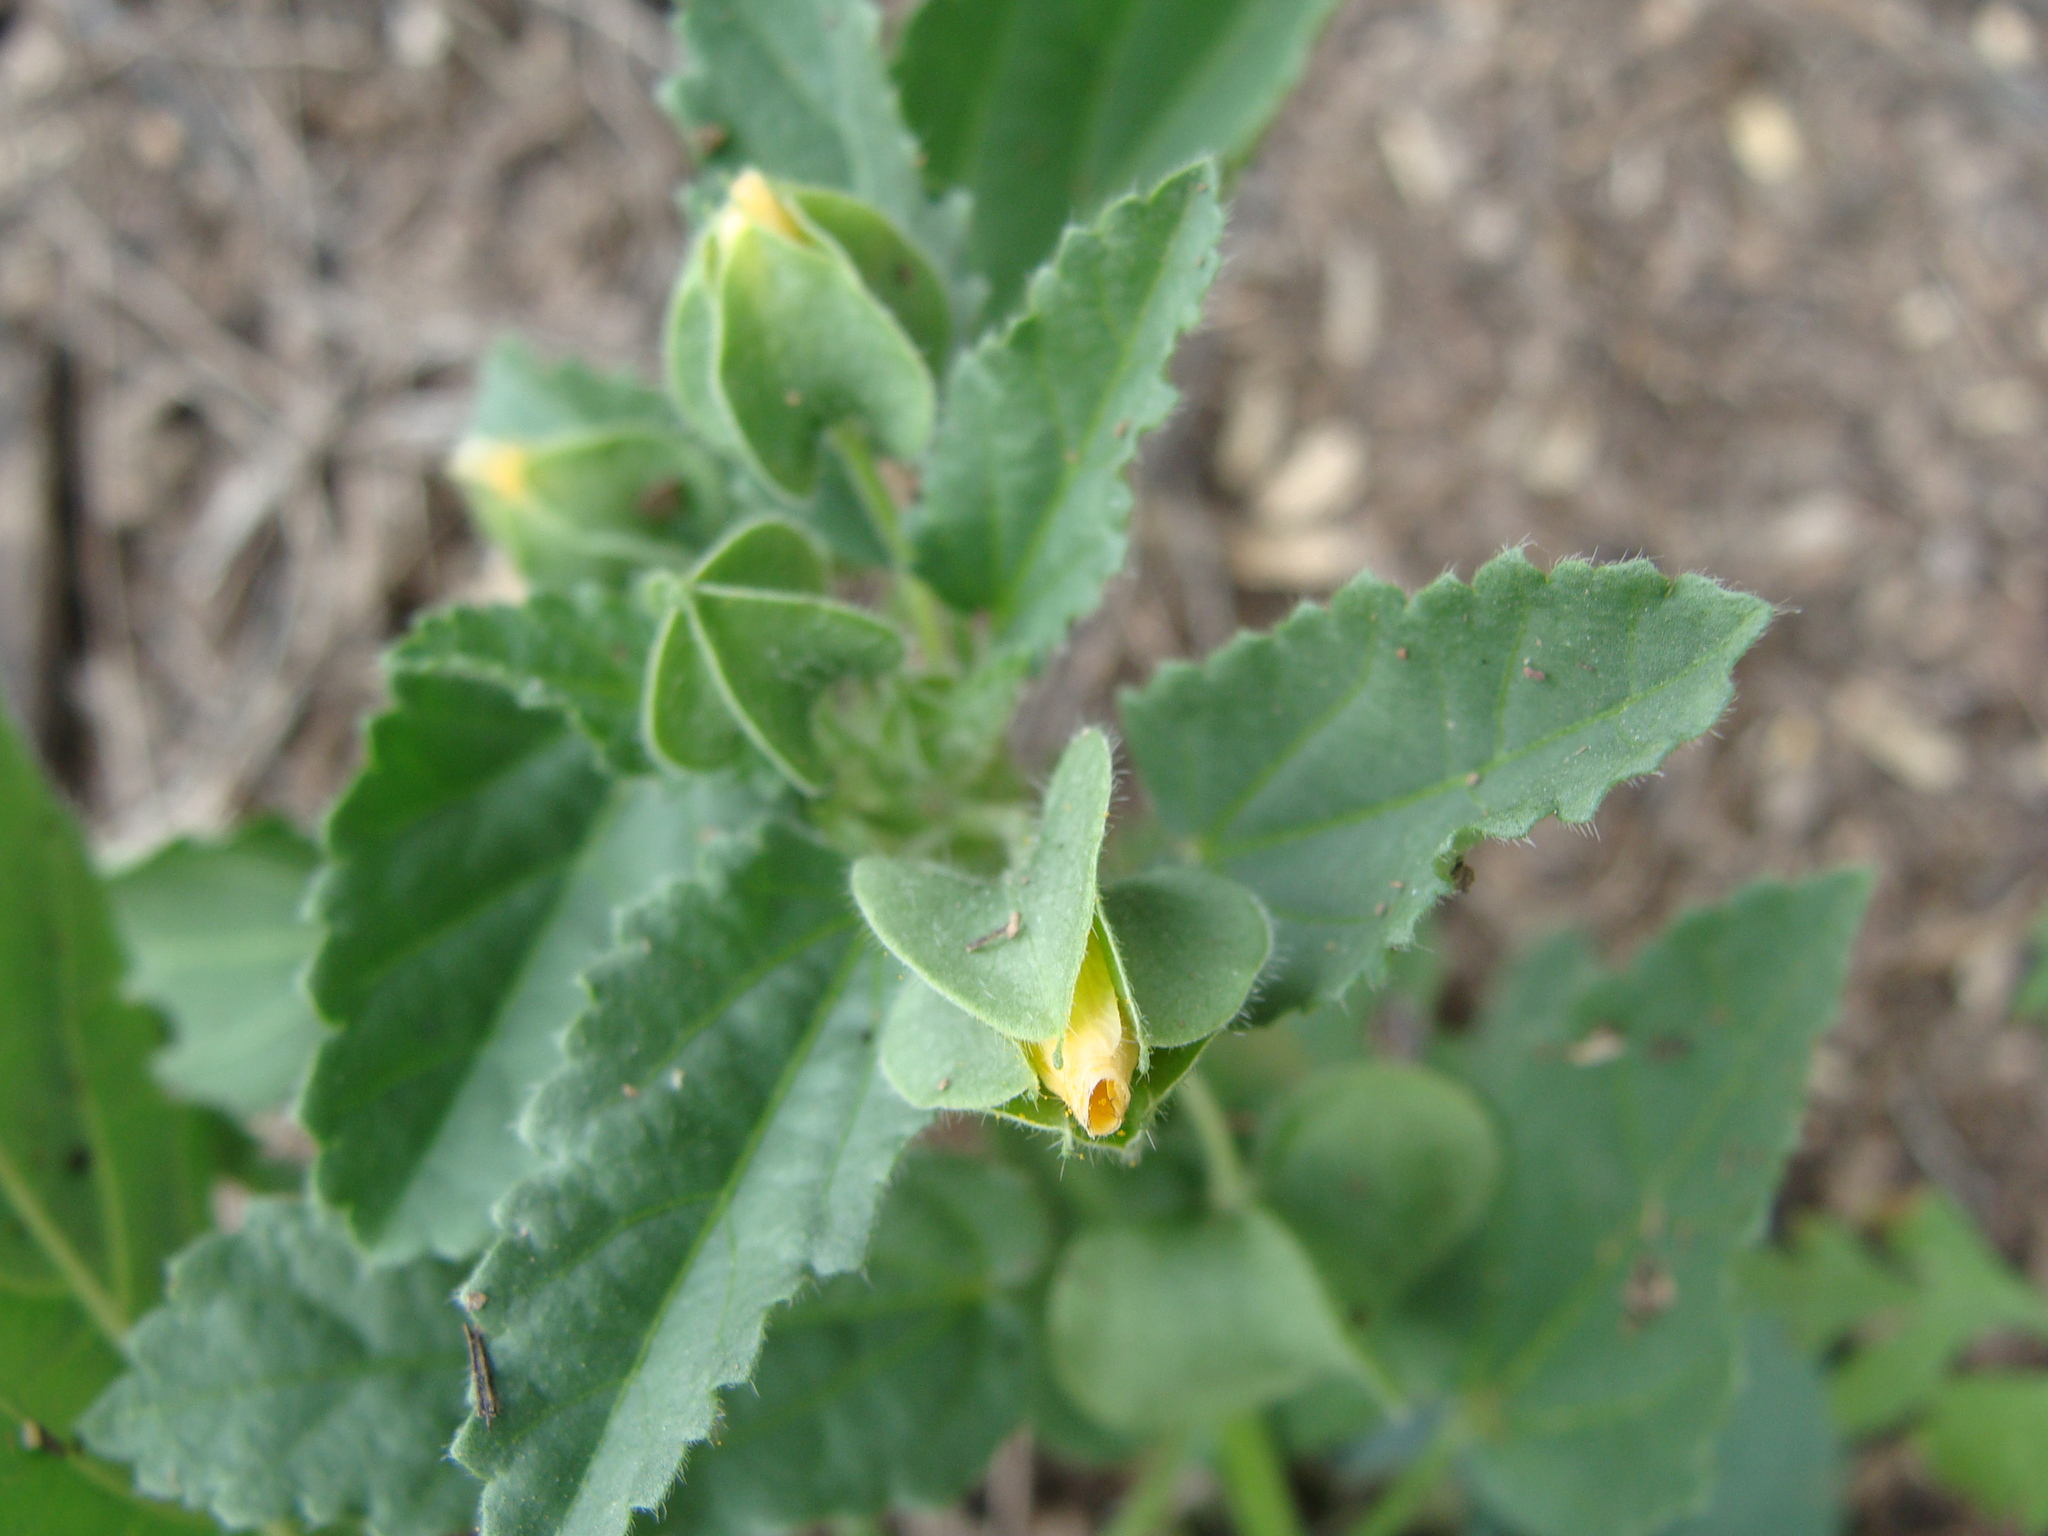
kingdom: Plantae
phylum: Tracheophyta
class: Magnoliopsida
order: Malvales
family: Malvaceae
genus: Rhynchosida
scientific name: Rhynchosida physocalyx
